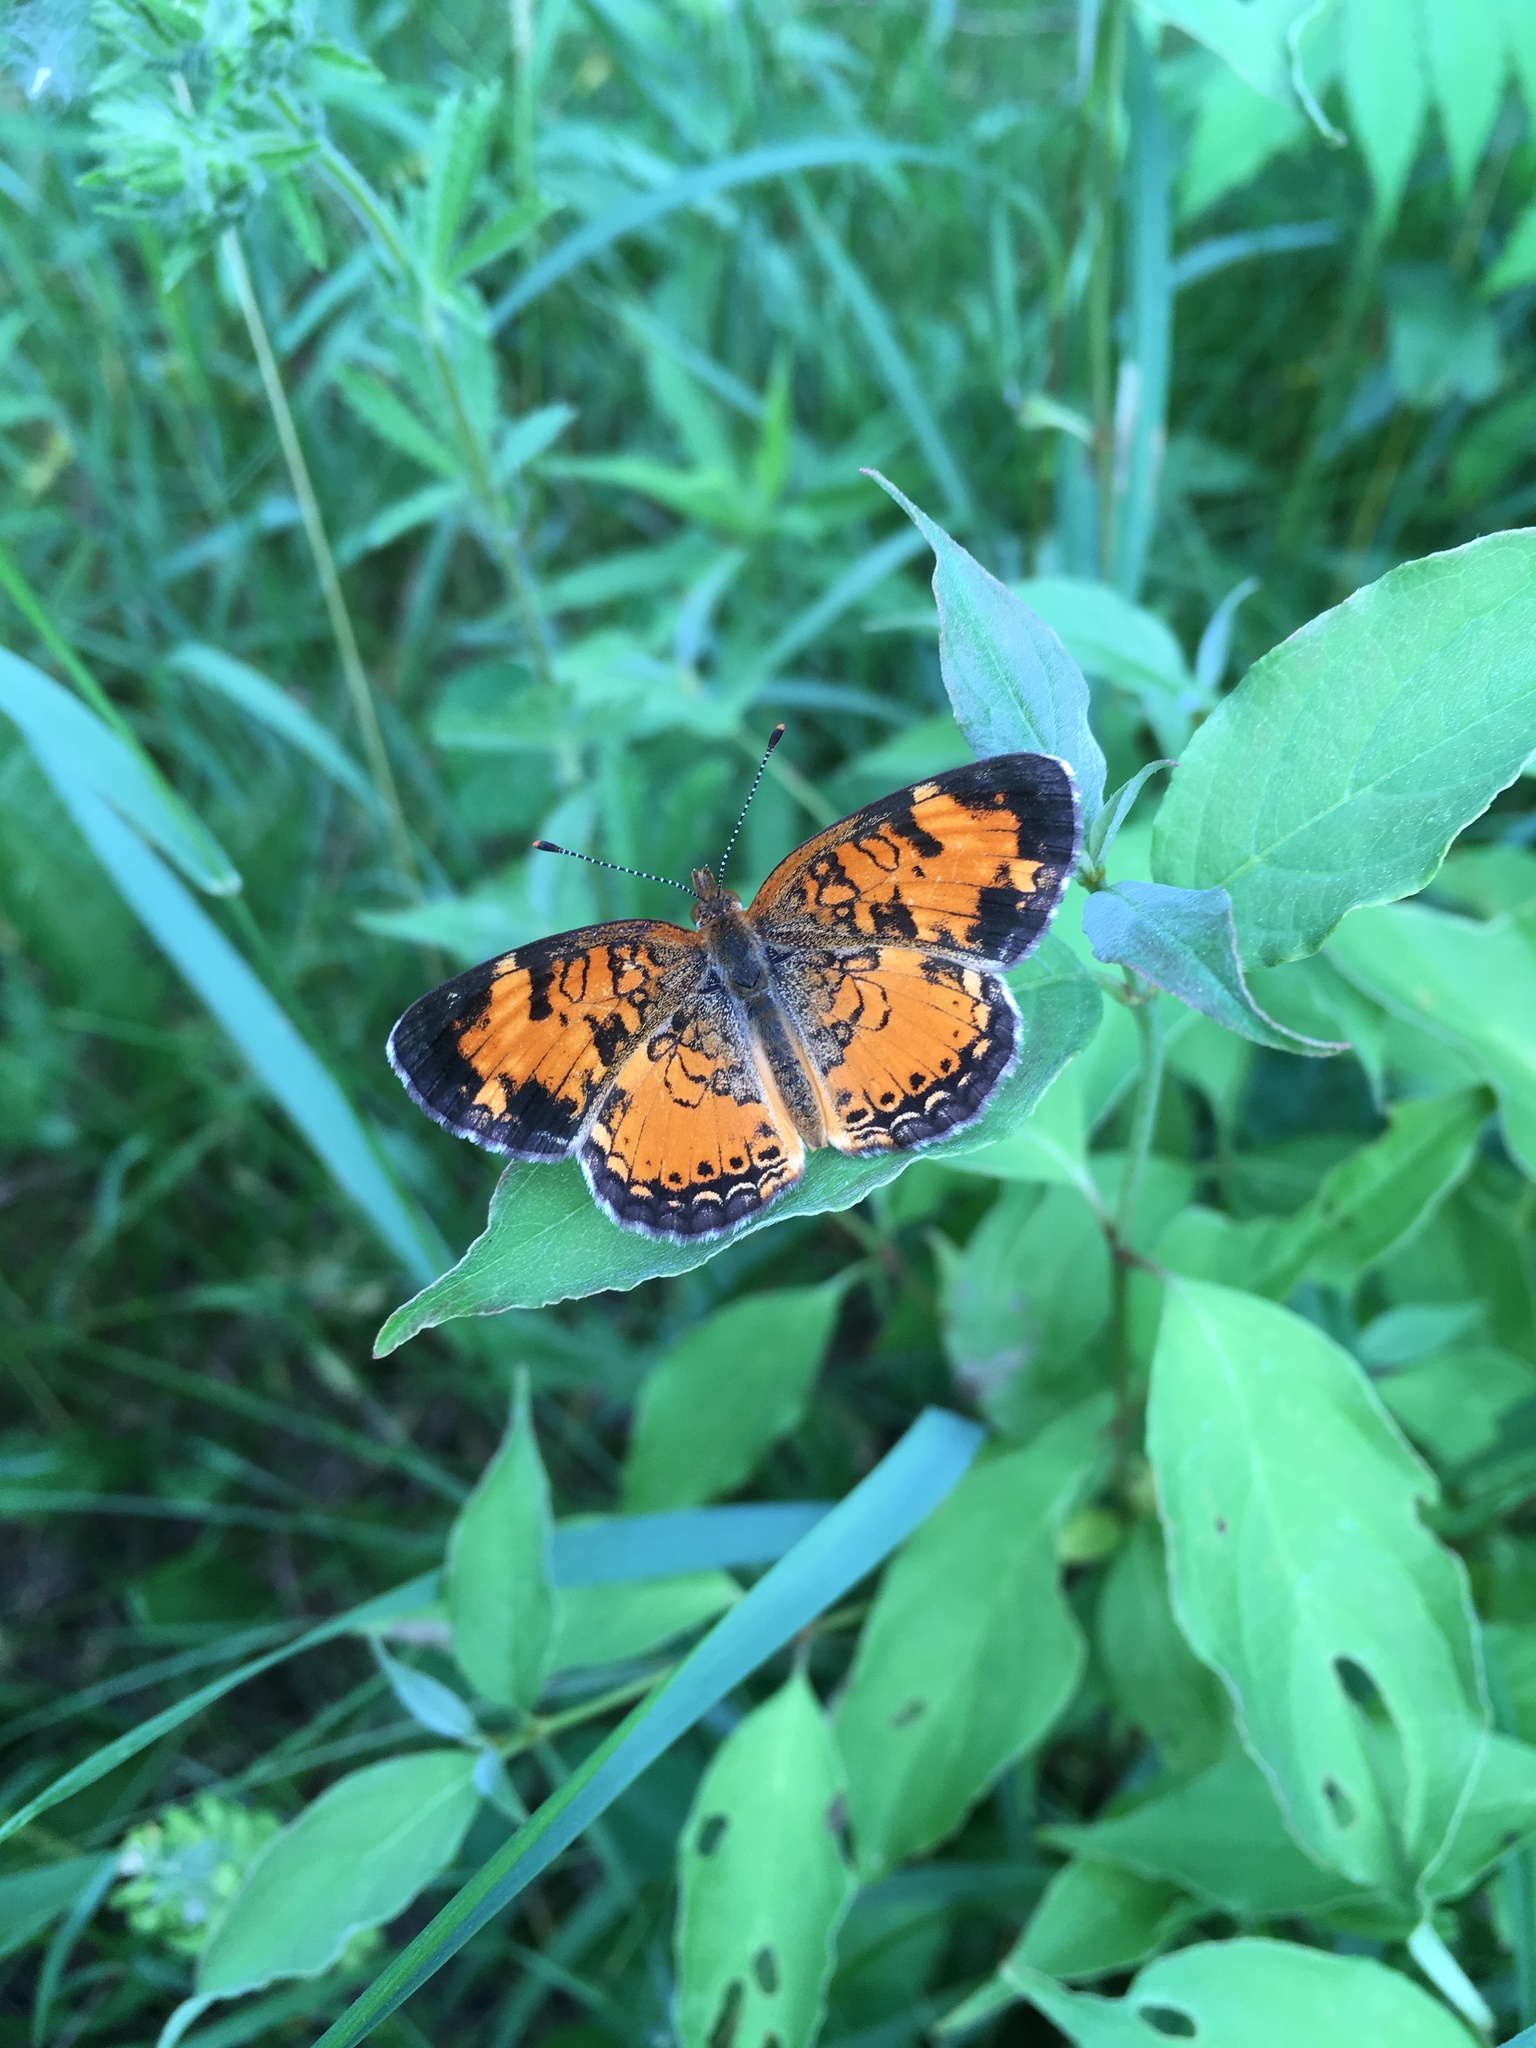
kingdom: Animalia
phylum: Arthropoda
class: Insecta
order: Lepidoptera
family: Nymphalidae
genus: Phyciodes
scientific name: Phyciodes tharos
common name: Pearl crescent
